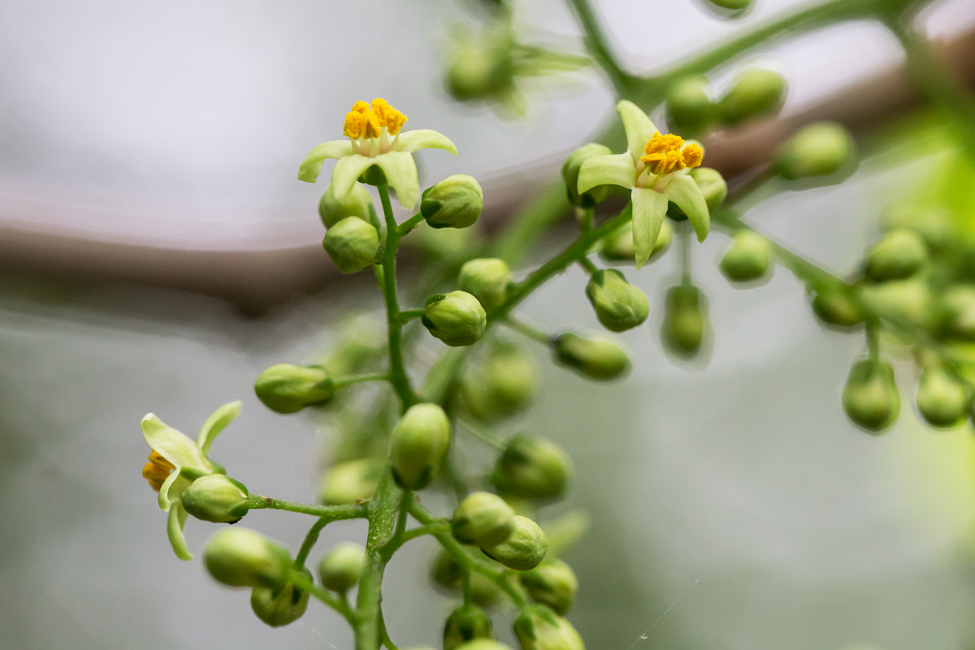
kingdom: Plantae
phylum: Tracheophyta
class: Magnoliopsida
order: Sapindales
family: Anacardiaceae
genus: Toxicodendron
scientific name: Toxicodendron radicans
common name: Poison ivy
